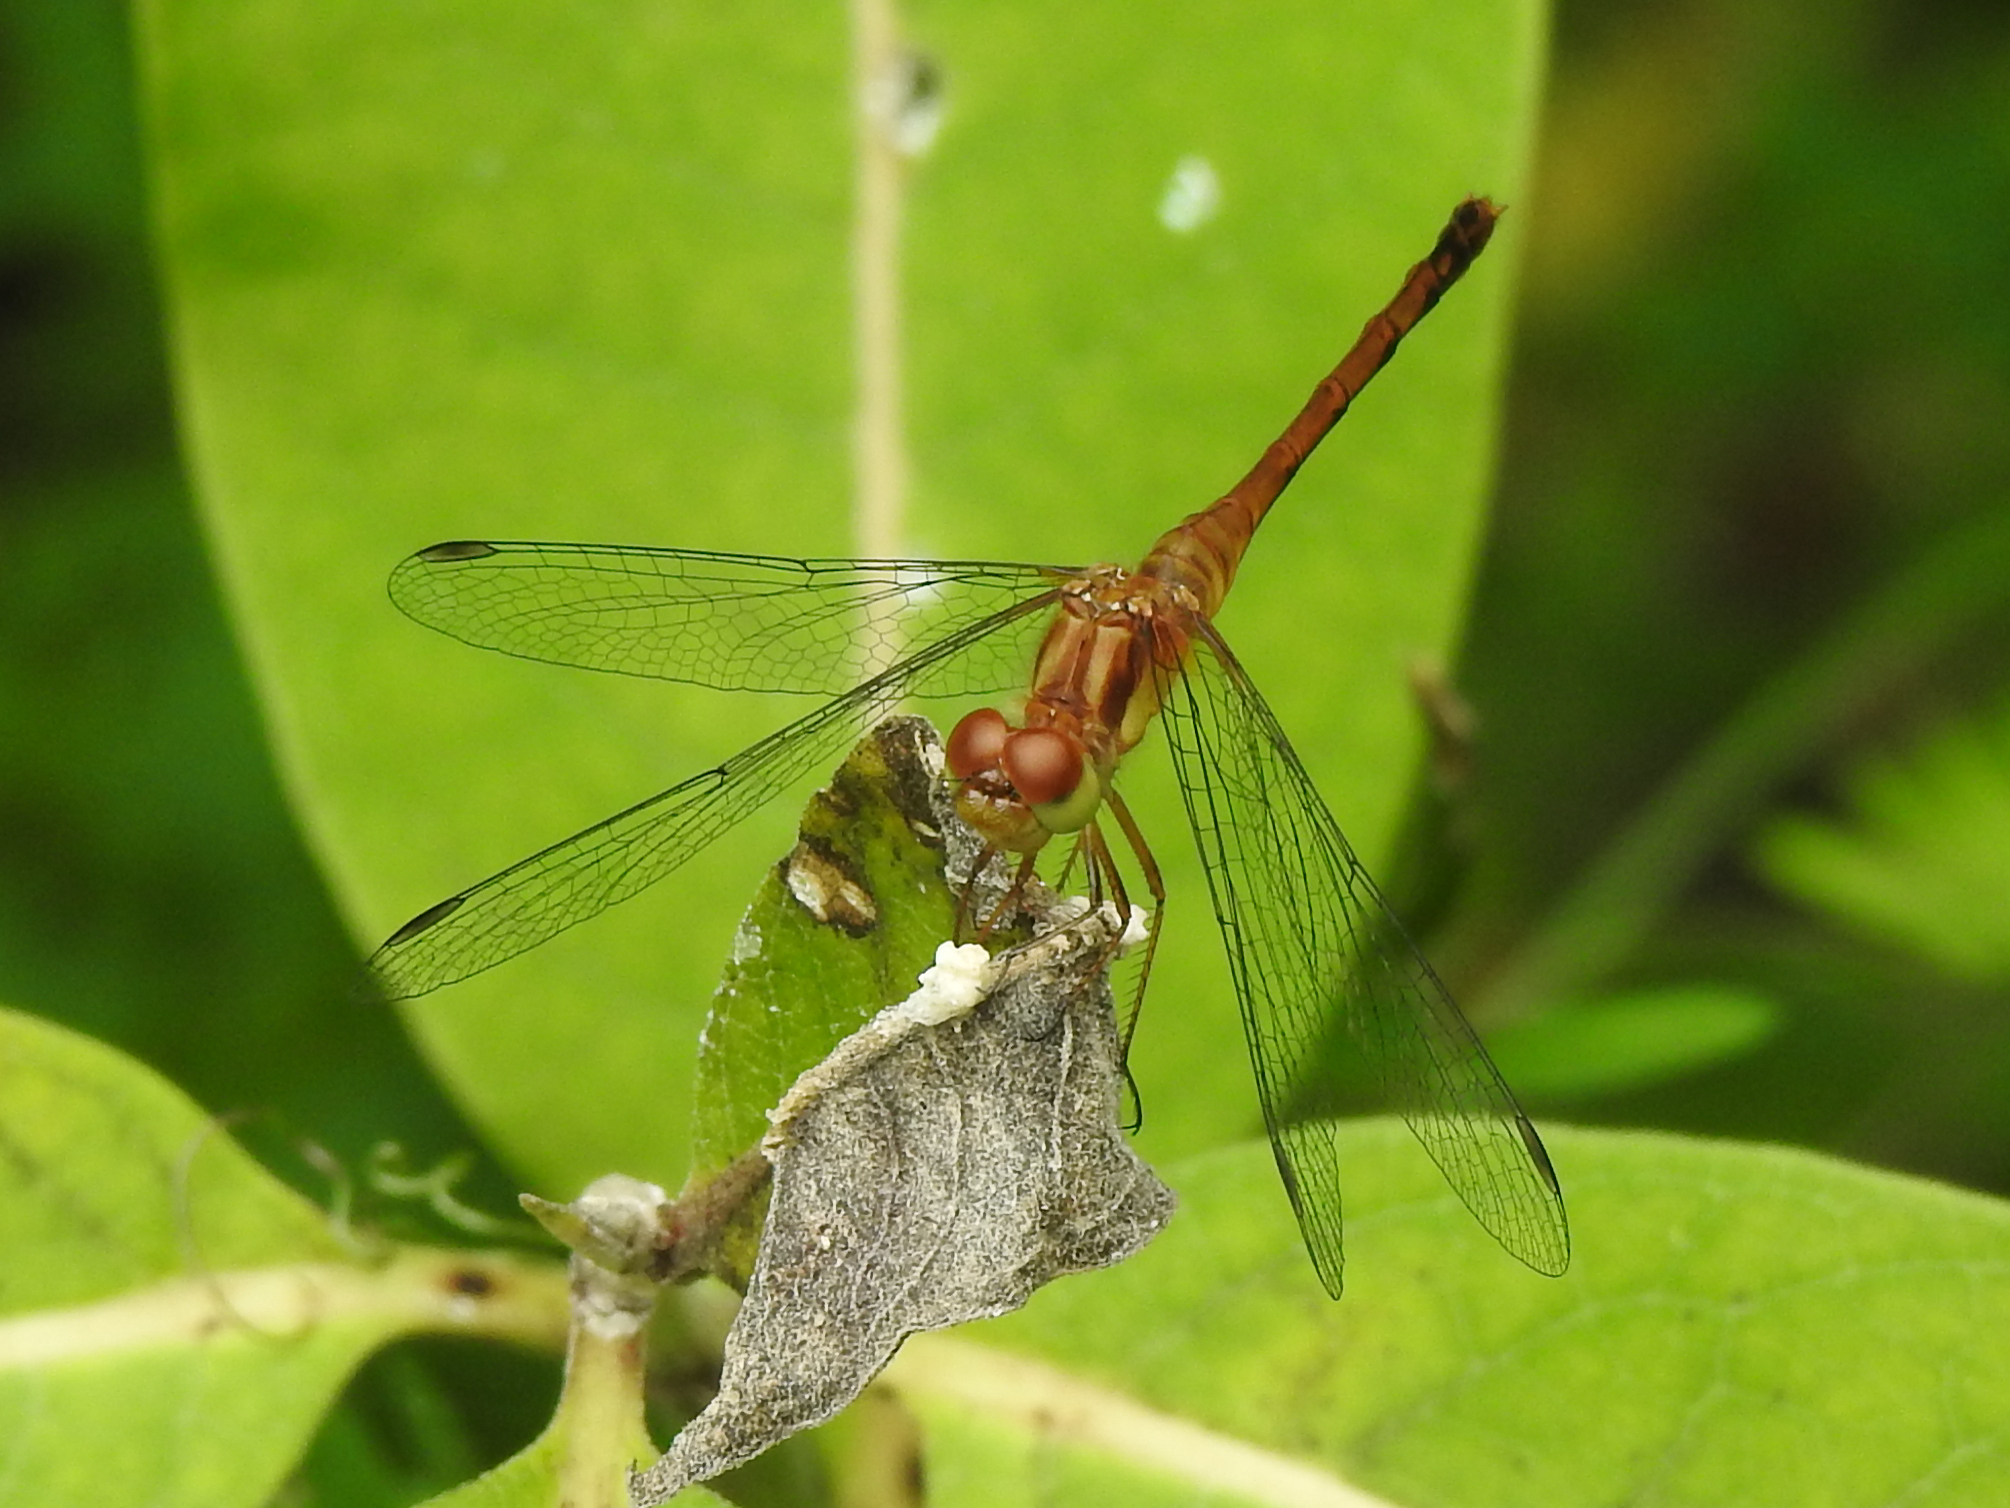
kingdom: Animalia
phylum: Arthropoda
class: Insecta
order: Odonata
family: Libellulidae
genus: Sympetrum
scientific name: Sympetrum vicinum
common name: Autumn meadowhawk
